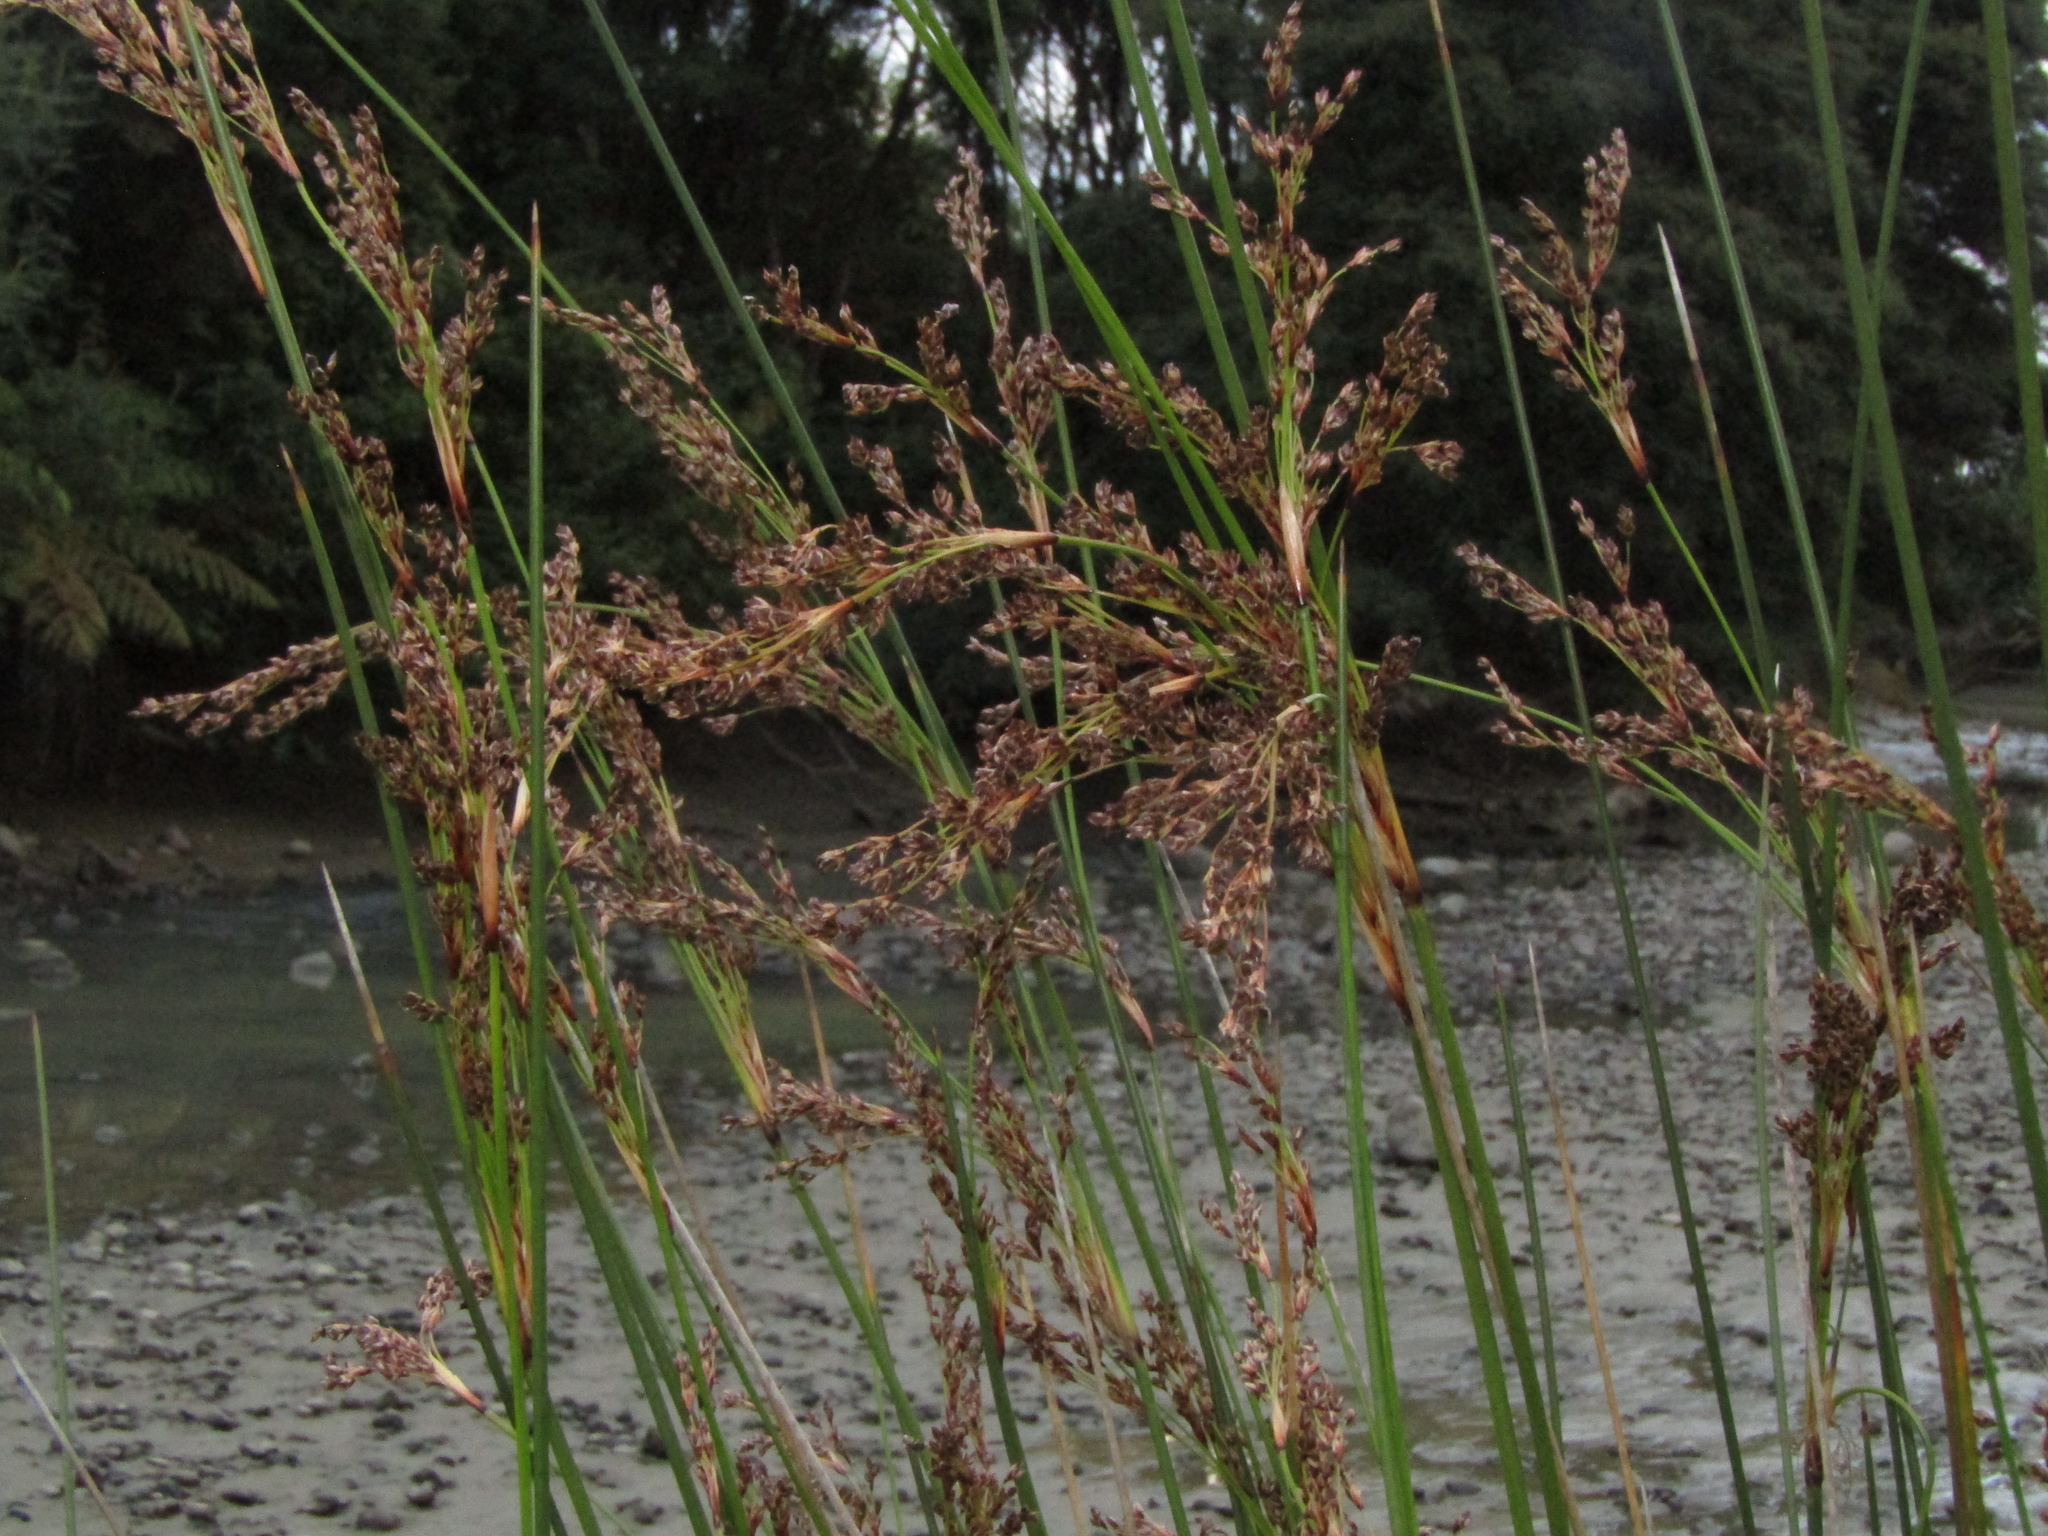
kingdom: Plantae
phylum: Tracheophyta
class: Liliopsida
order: Poales
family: Juncaceae
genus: Juncus
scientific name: Juncus kraussii
